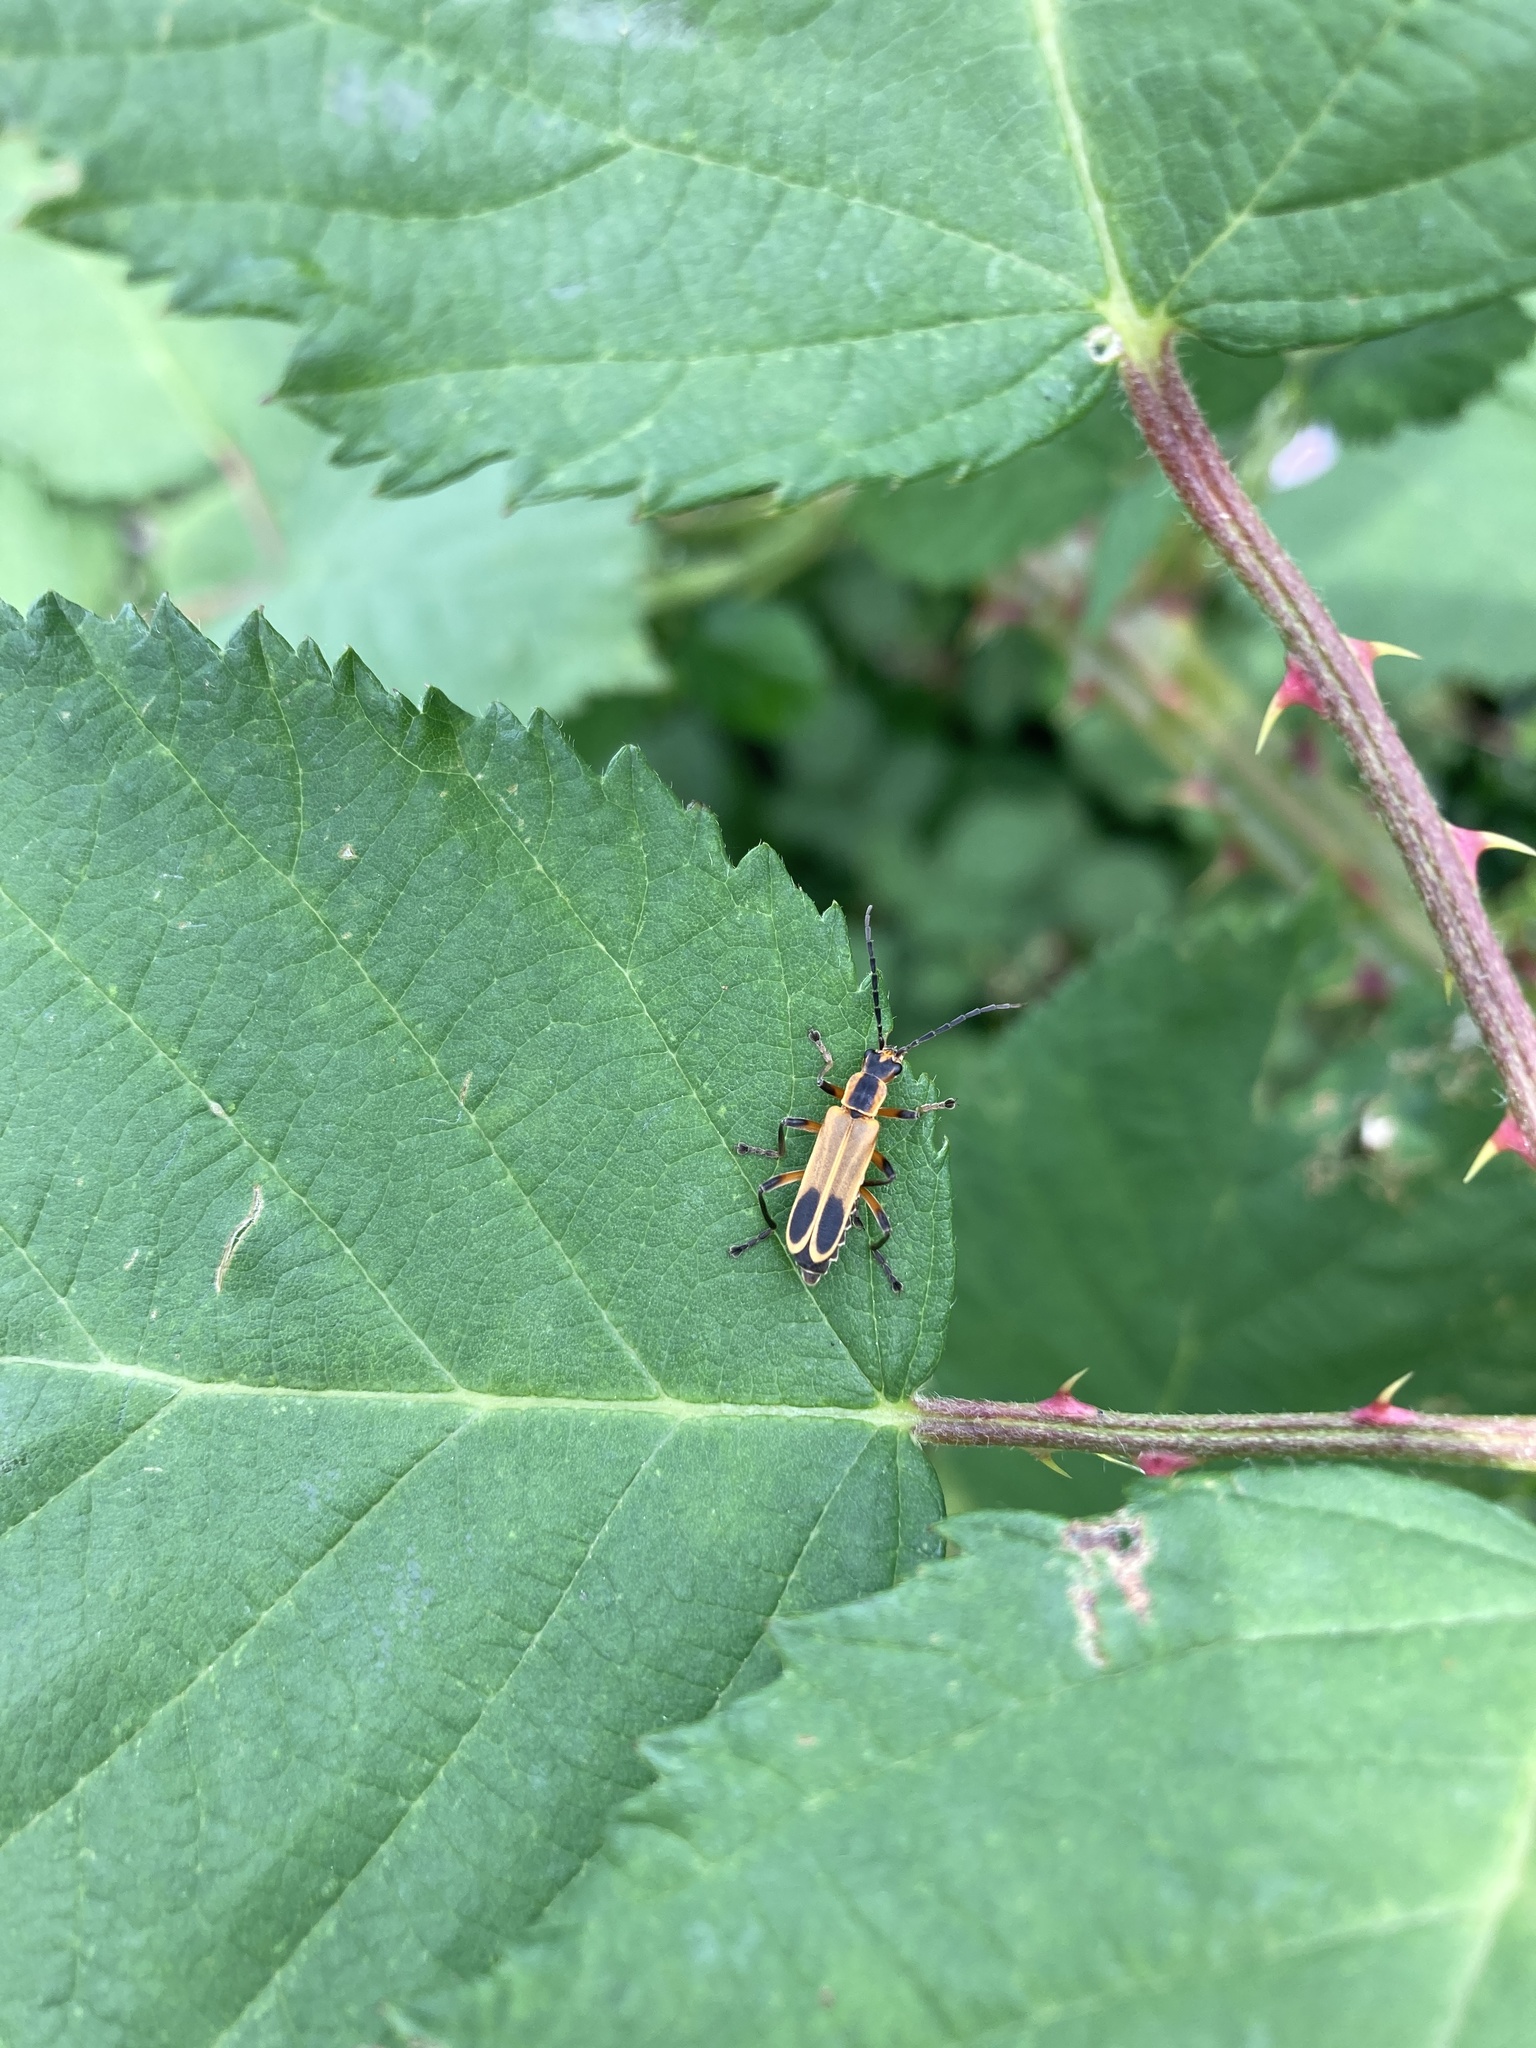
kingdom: Animalia
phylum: Arthropoda
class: Insecta
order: Coleoptera
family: Cantharidae
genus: Chauliognathus
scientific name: Chauliognathus marginatus
